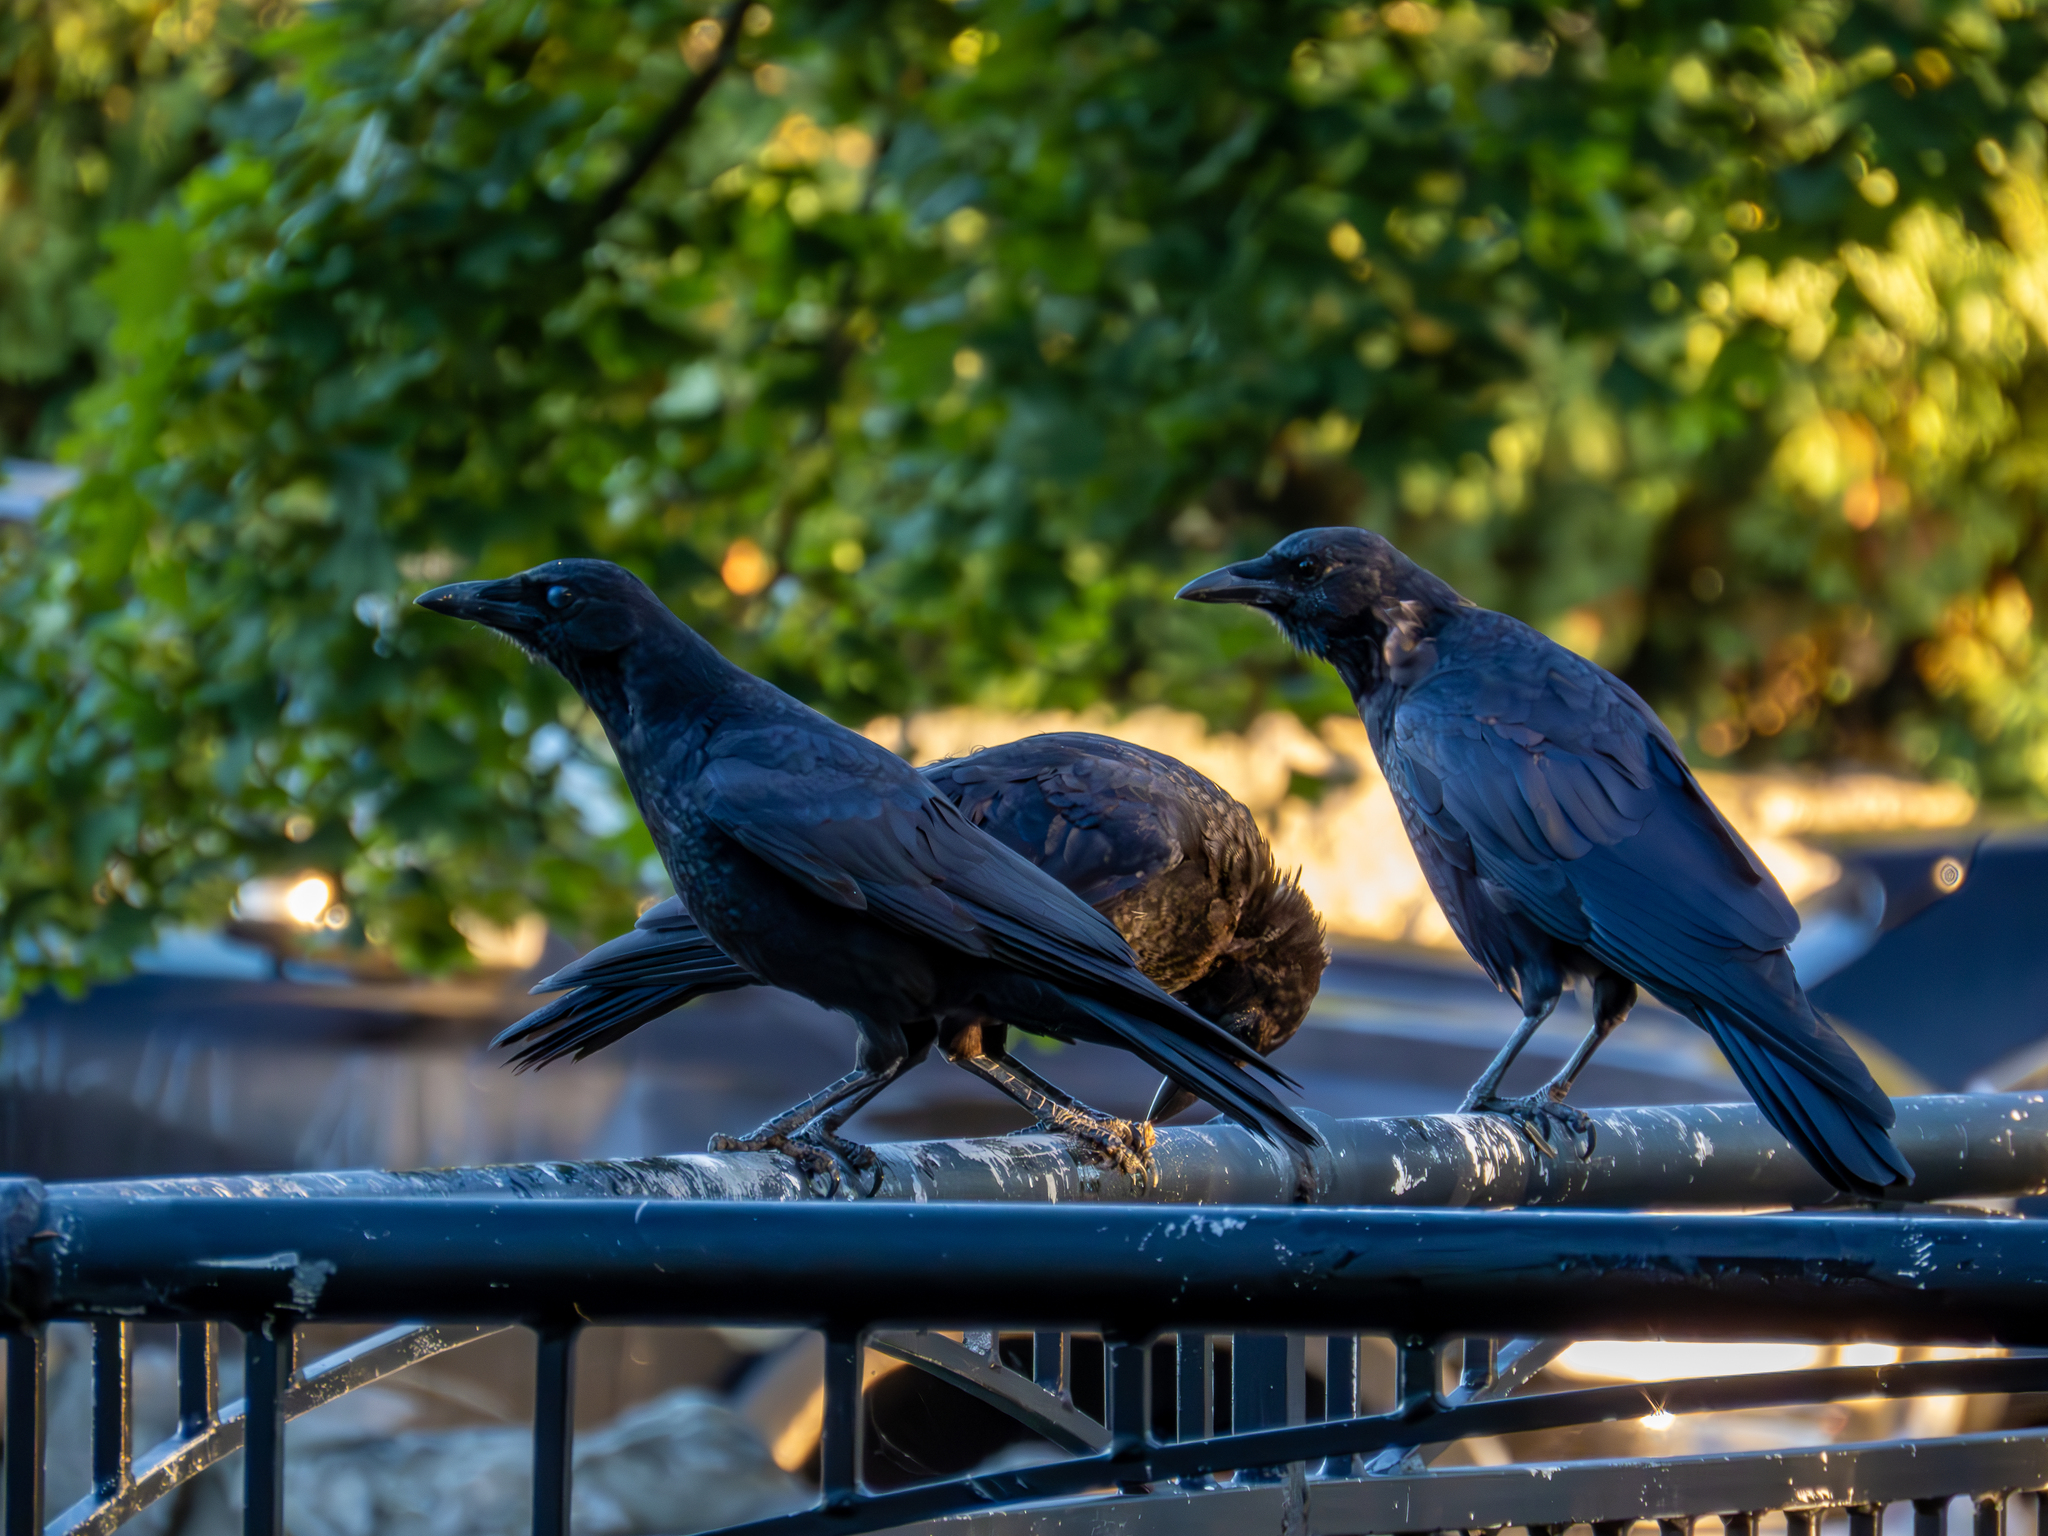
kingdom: Animalia
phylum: Chordata
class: Aves
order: Passeriformes
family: Corvidae
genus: Corvus
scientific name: Corvus brachyrhynchos
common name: American crow
